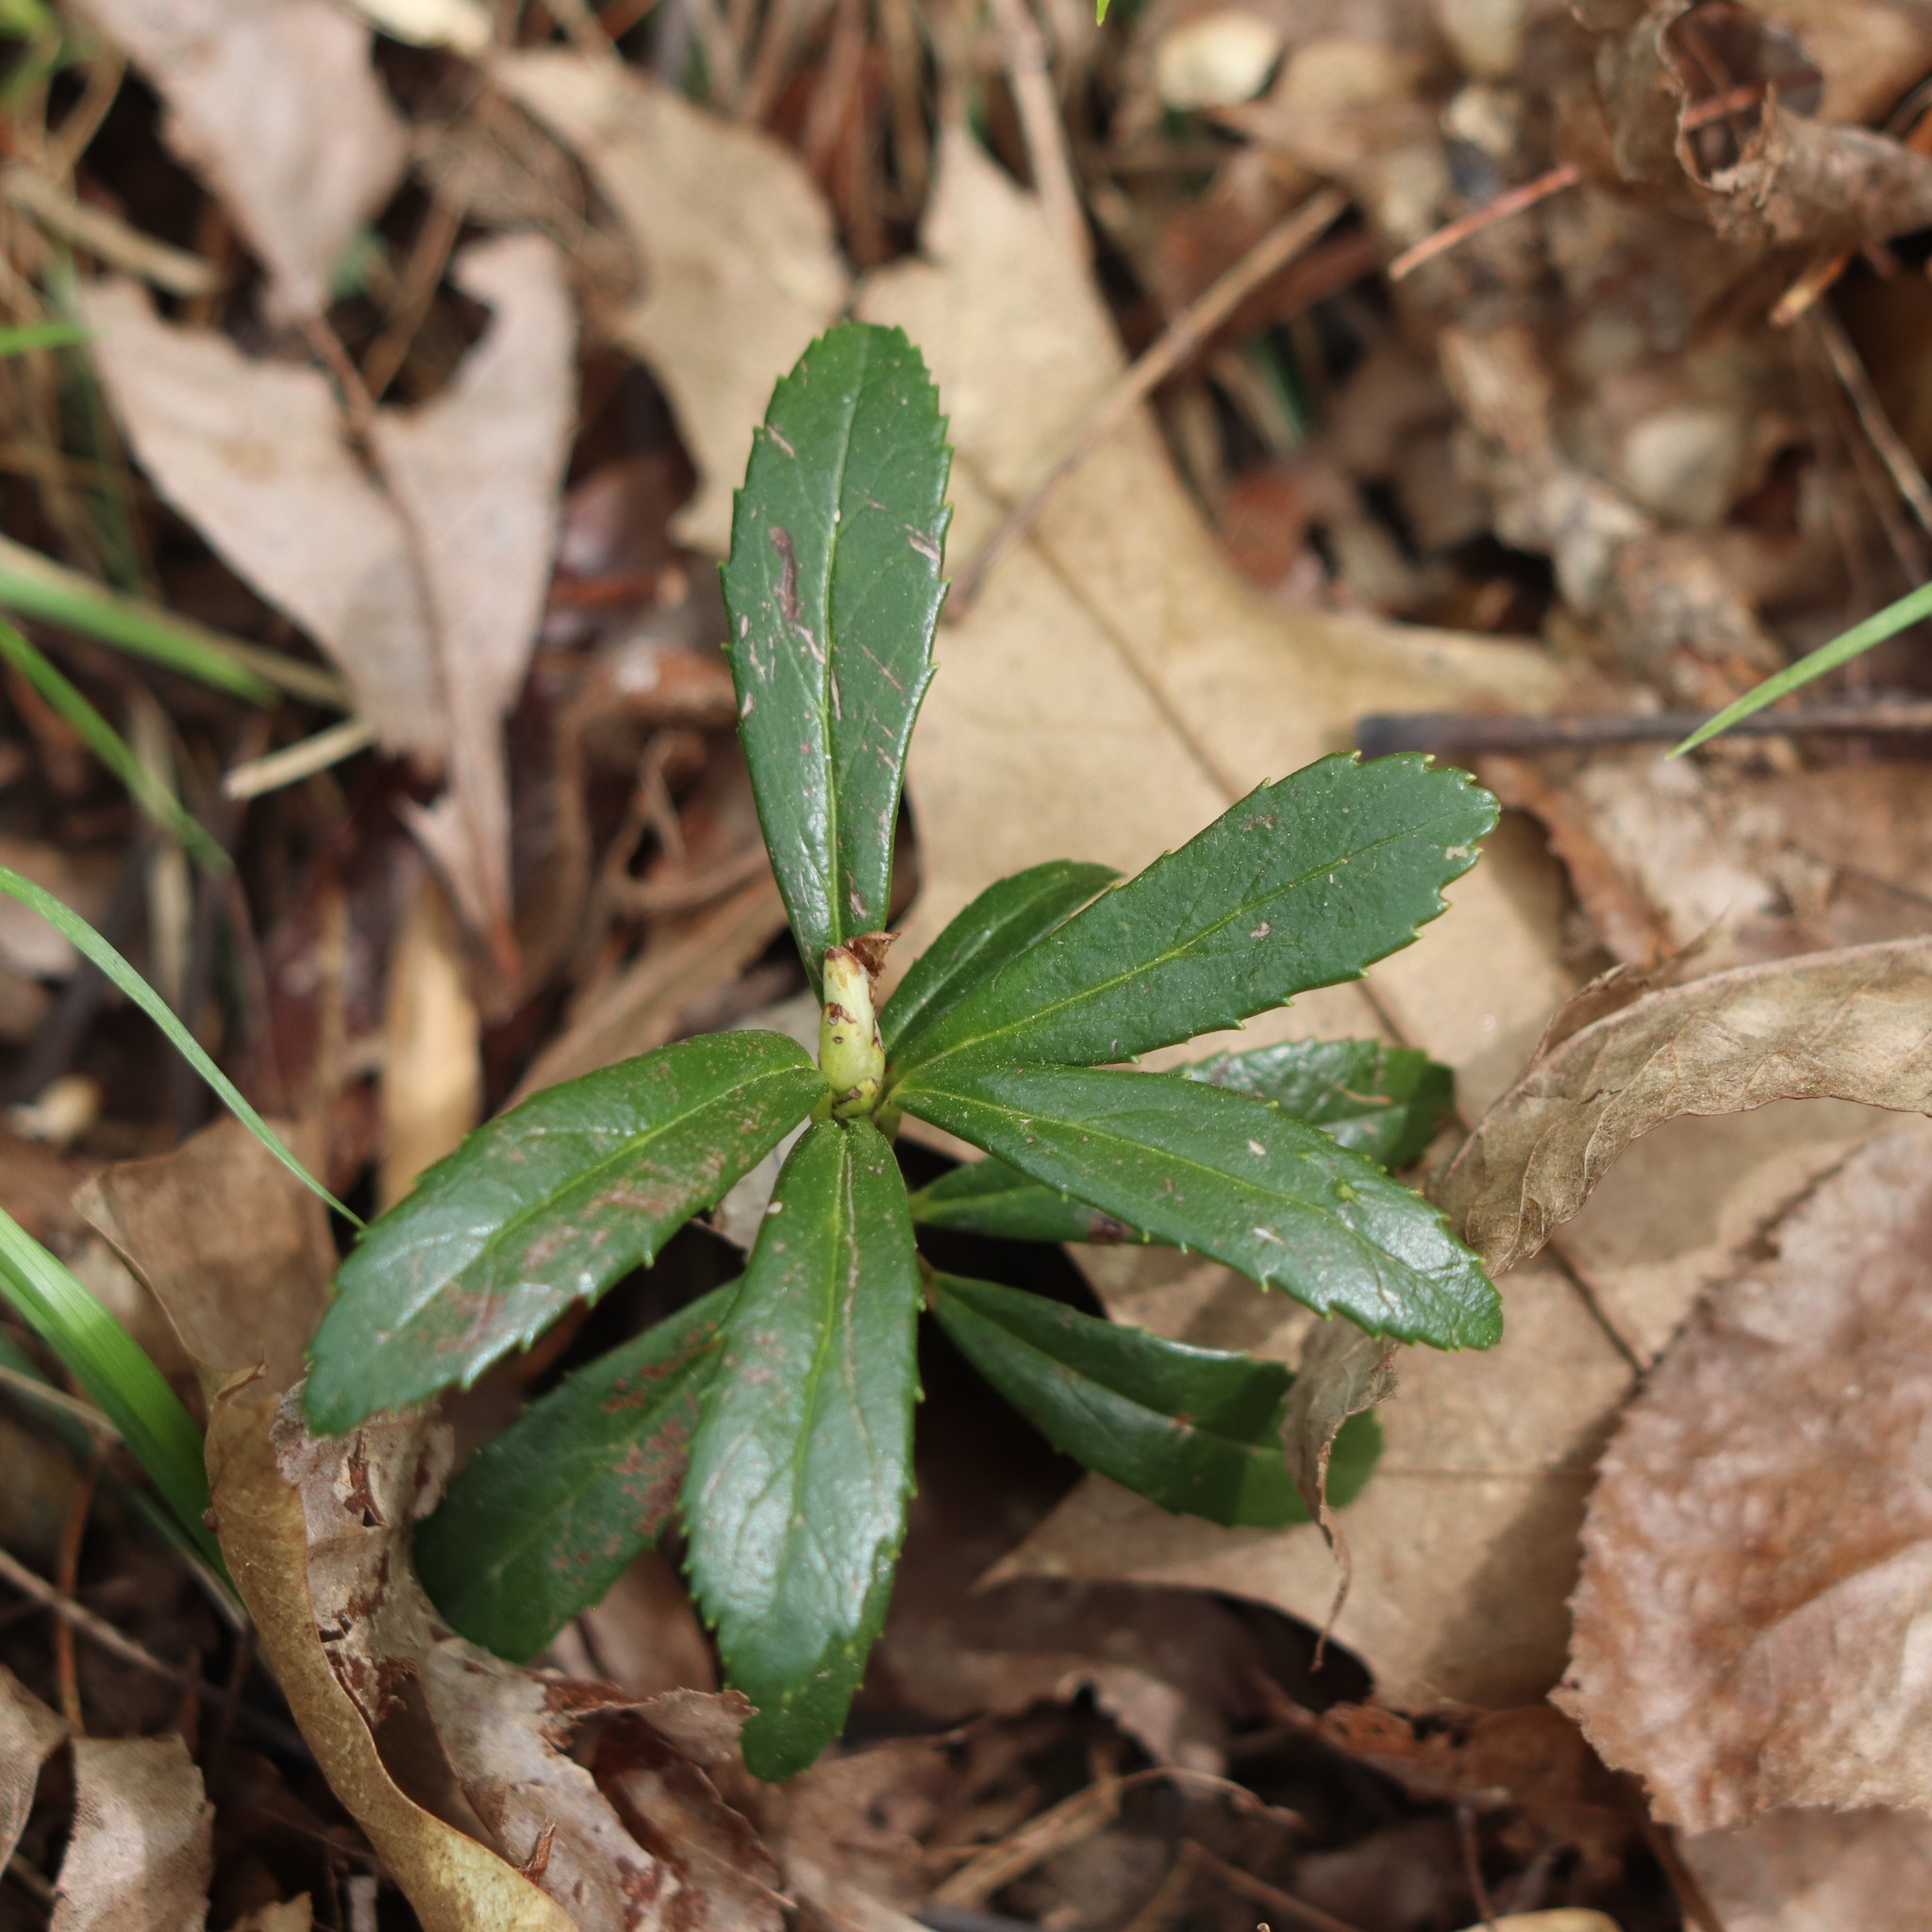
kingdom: Plantae
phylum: Tracheophyta
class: Magnoliopsida
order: Ericales
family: Ericaceae
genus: Chimaphila
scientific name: Chimaphila umbellata
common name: Pipsissewa
